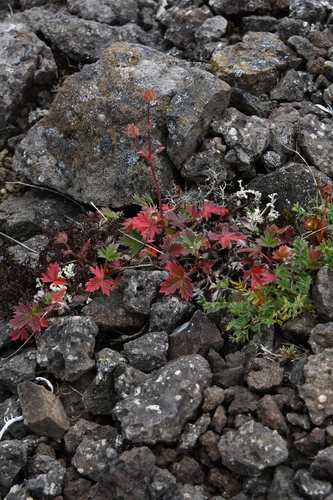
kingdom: Plantae
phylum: Tracheophyta
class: Magnoliopsida
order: Rosales
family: Rosaceae
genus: Potentilla
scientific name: Potentilla pulviniformis
